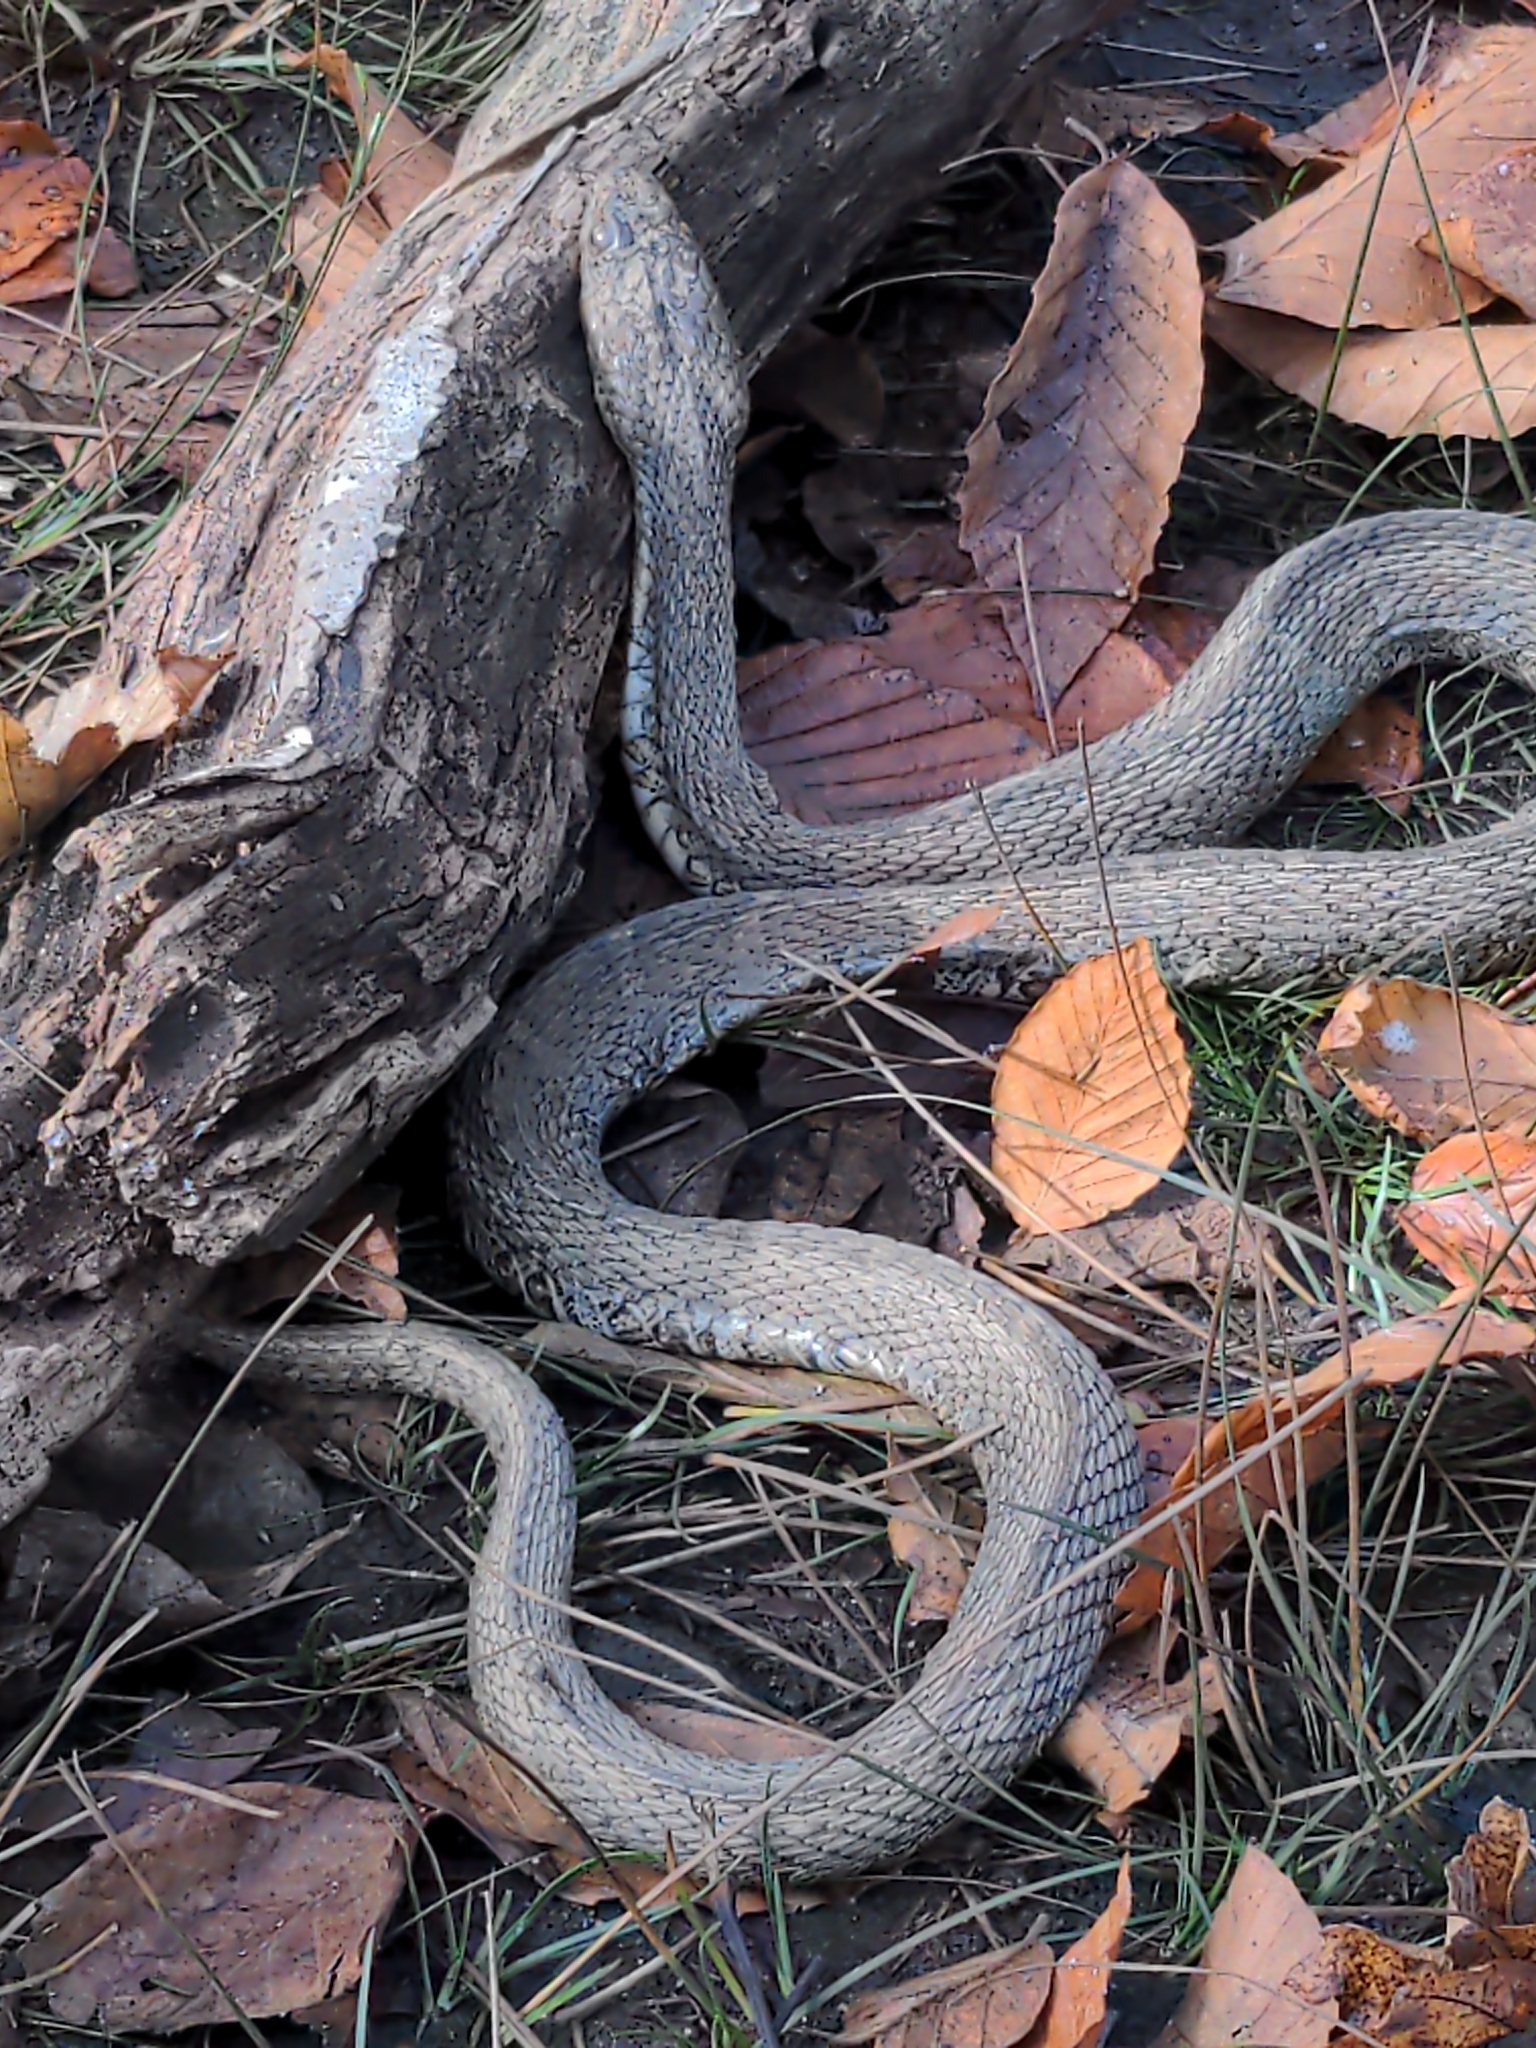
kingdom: Animalia
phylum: Chordata
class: Squamata
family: Colubridae
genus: Nerodia
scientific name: Nerodia sipedon
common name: Northern water snake
